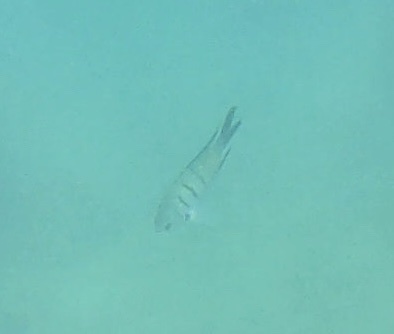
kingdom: Animalia
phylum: Chordata
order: Perciformes
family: Pomacentridae
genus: Abudefduf
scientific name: Abudefduf whitleyi
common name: Whitley's seargent
